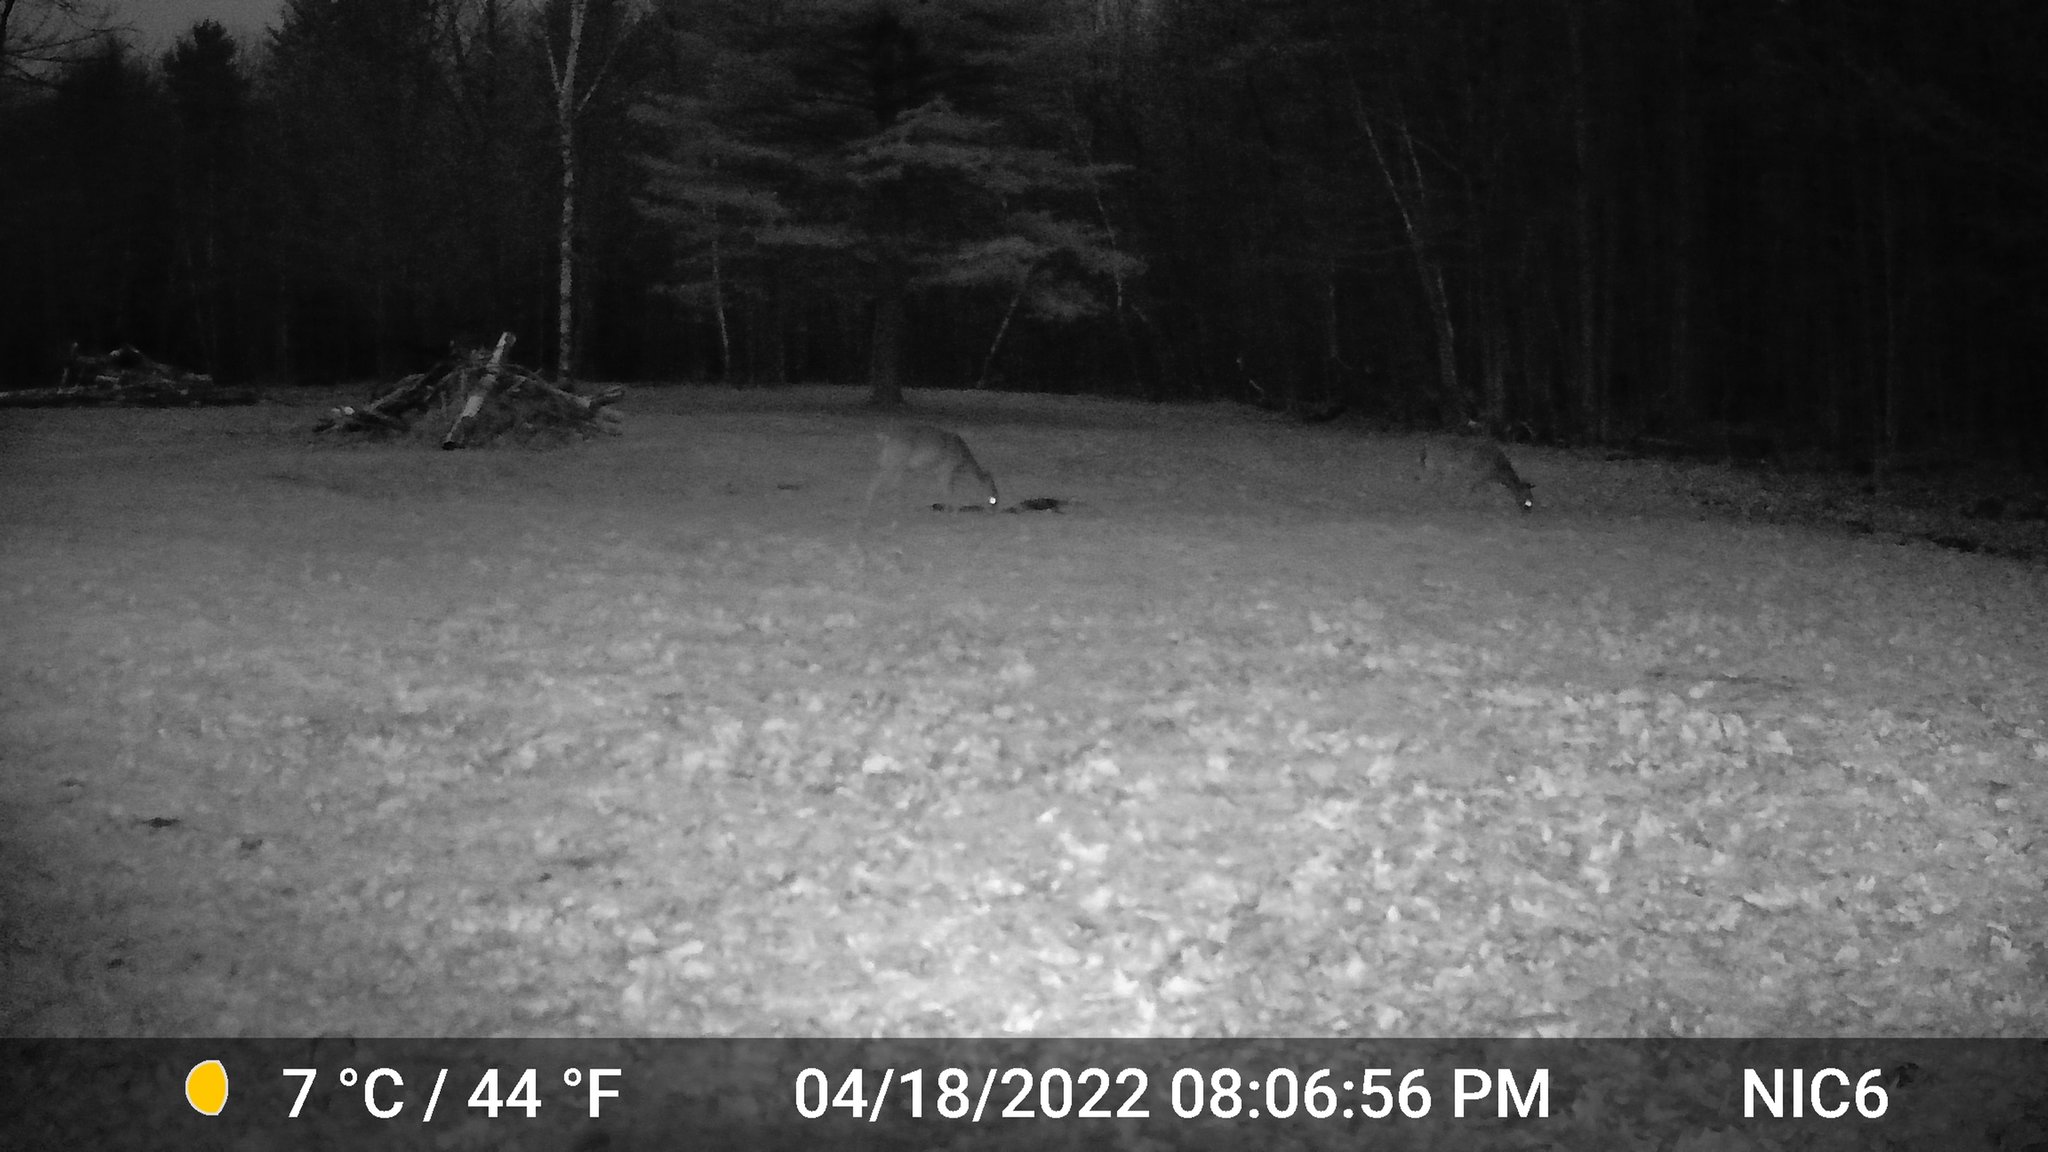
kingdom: Animalia
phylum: Chordata
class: Mammalia
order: Artiodactyla
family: Cervidae
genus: Odocoileus
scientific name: Odocoileus virginianus
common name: White-tailed deer
